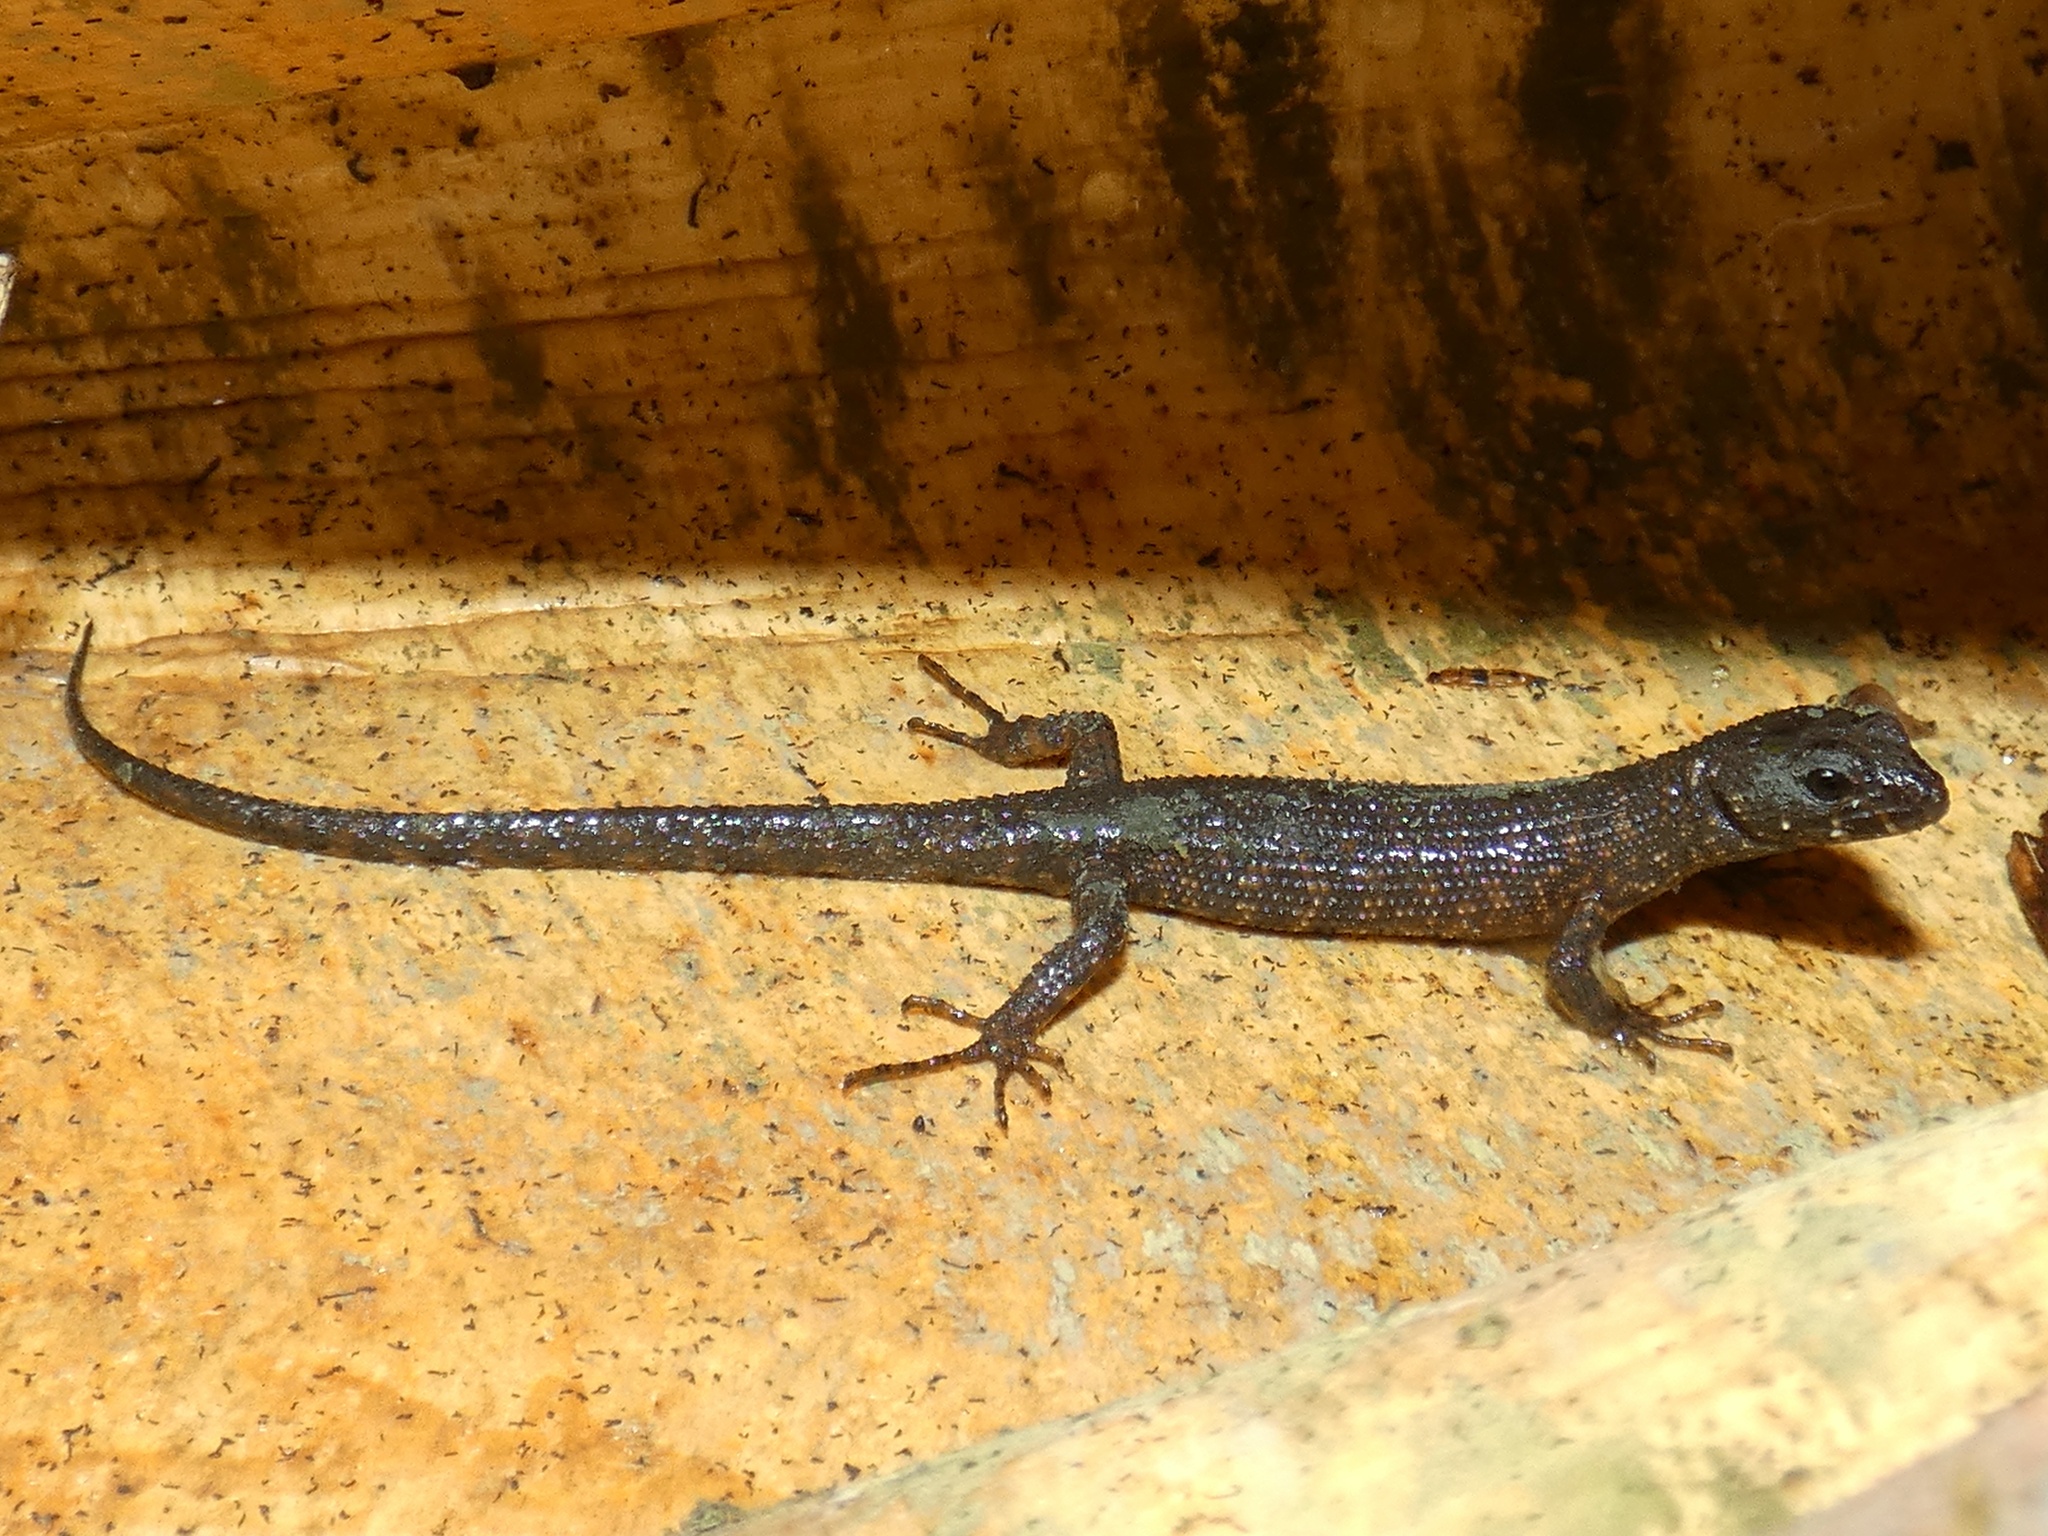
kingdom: Animalia
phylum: Chordata
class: Squamata
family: Scincidae
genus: Gnypetoscincus
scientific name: Gnypetoscincus queenslandiae
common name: Prickly forest skink
